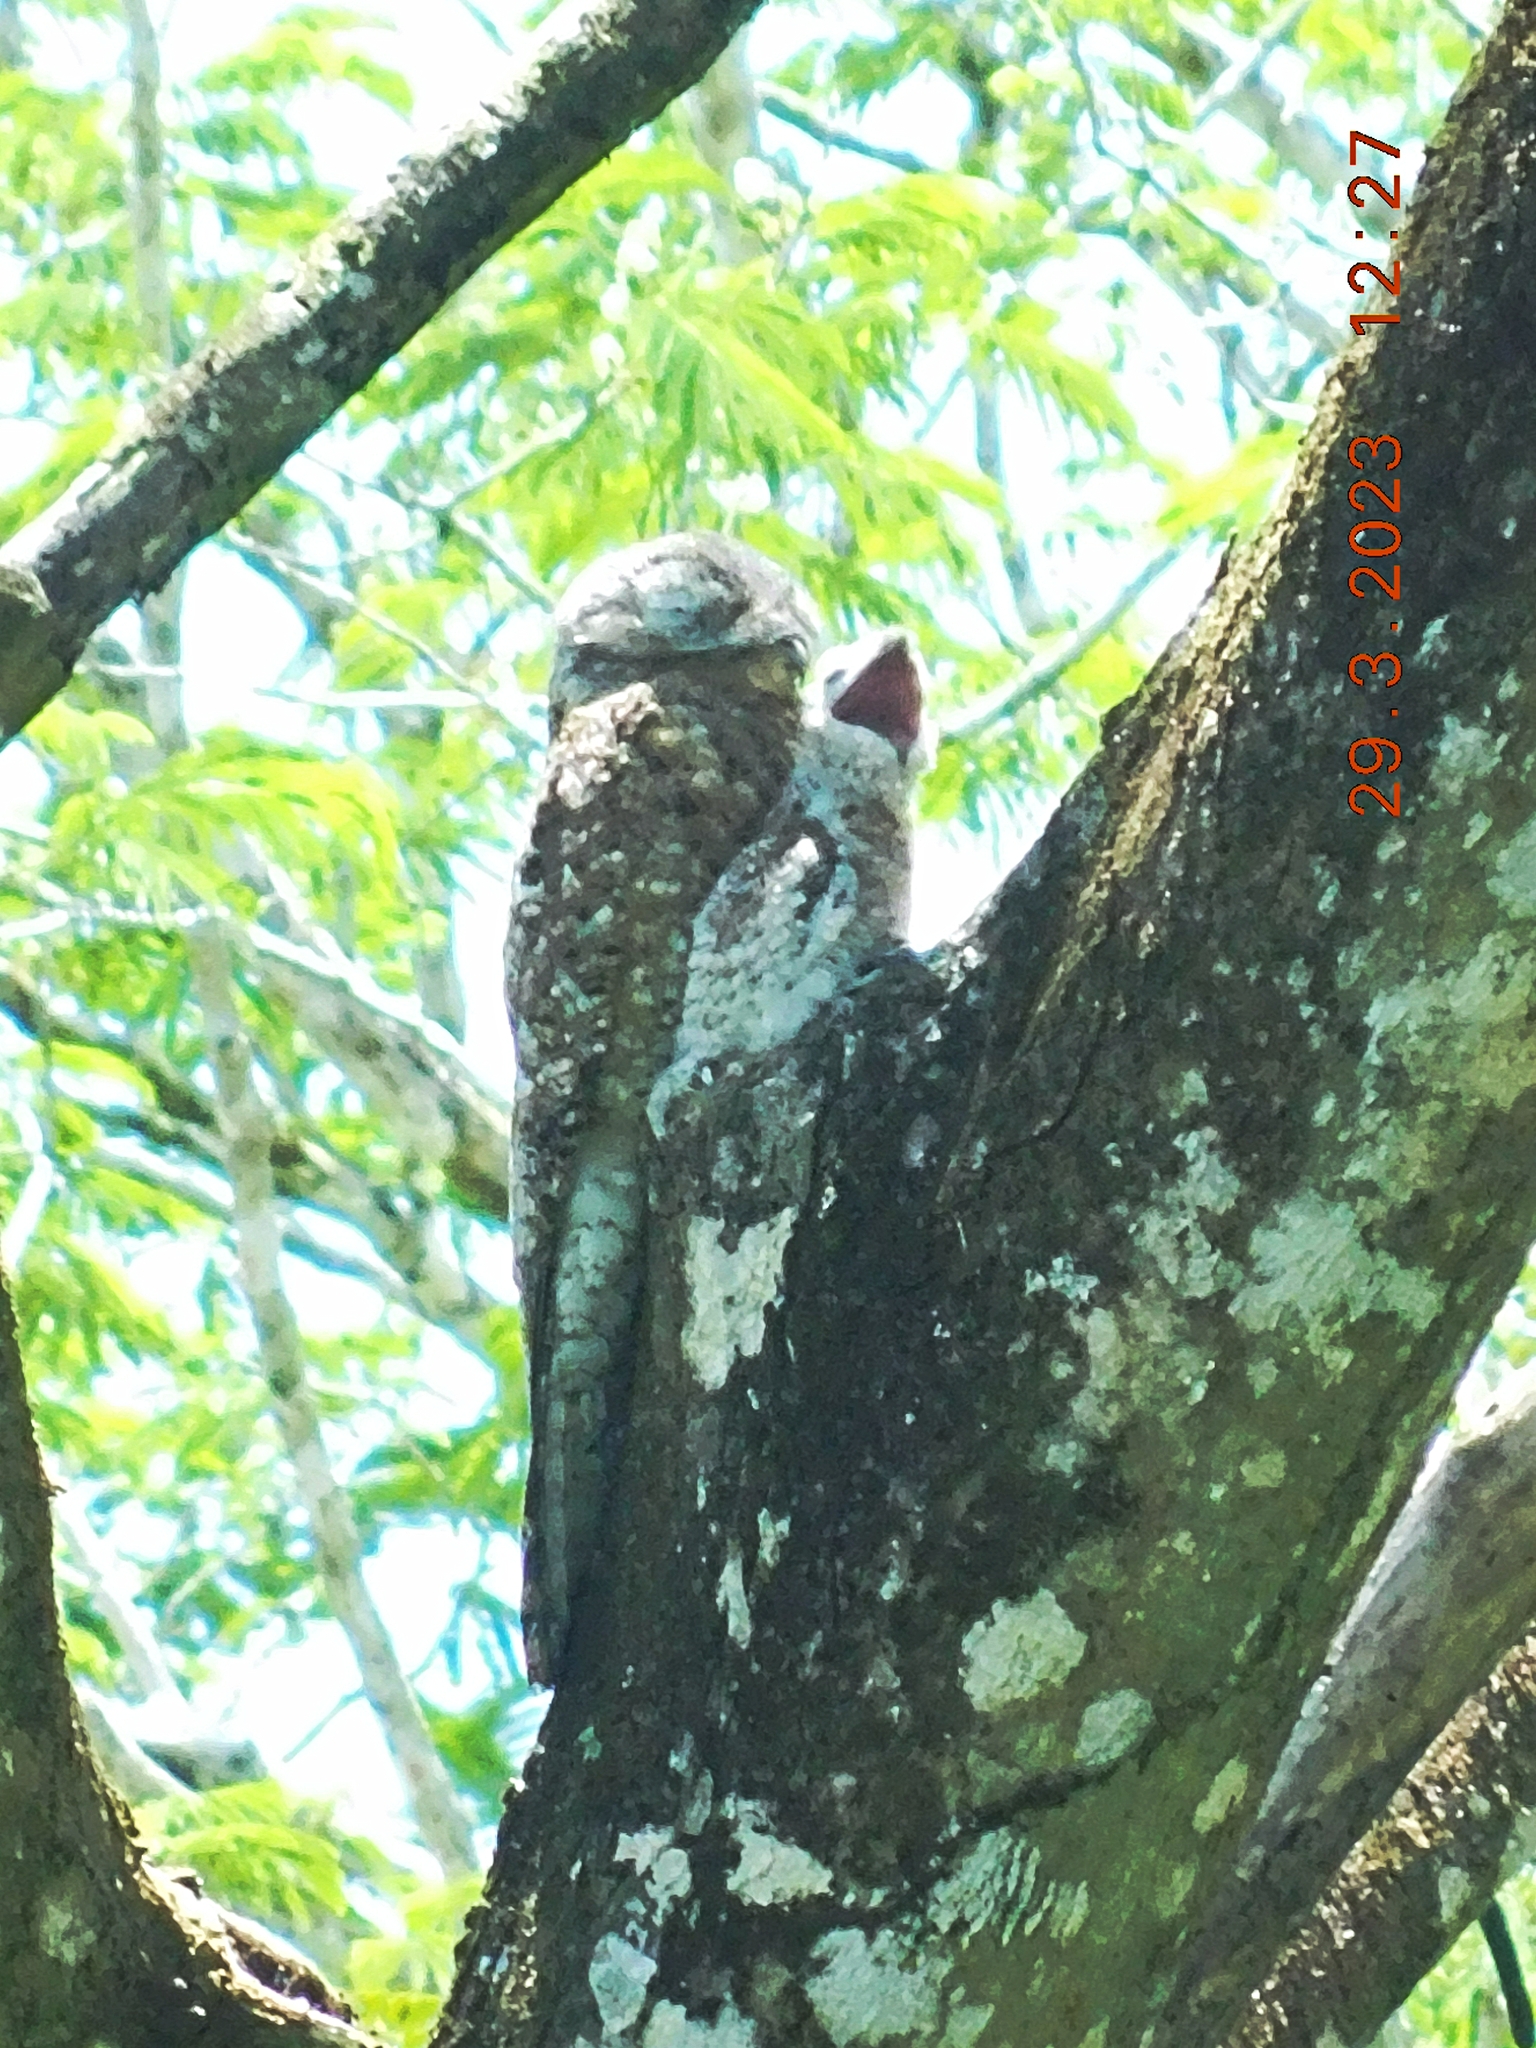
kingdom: Animalia
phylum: Chordata
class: Aves
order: Nyctibiiformes
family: Nyctibiidae
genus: Nyctibius
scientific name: Nyctibius grandis
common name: Great potoo
